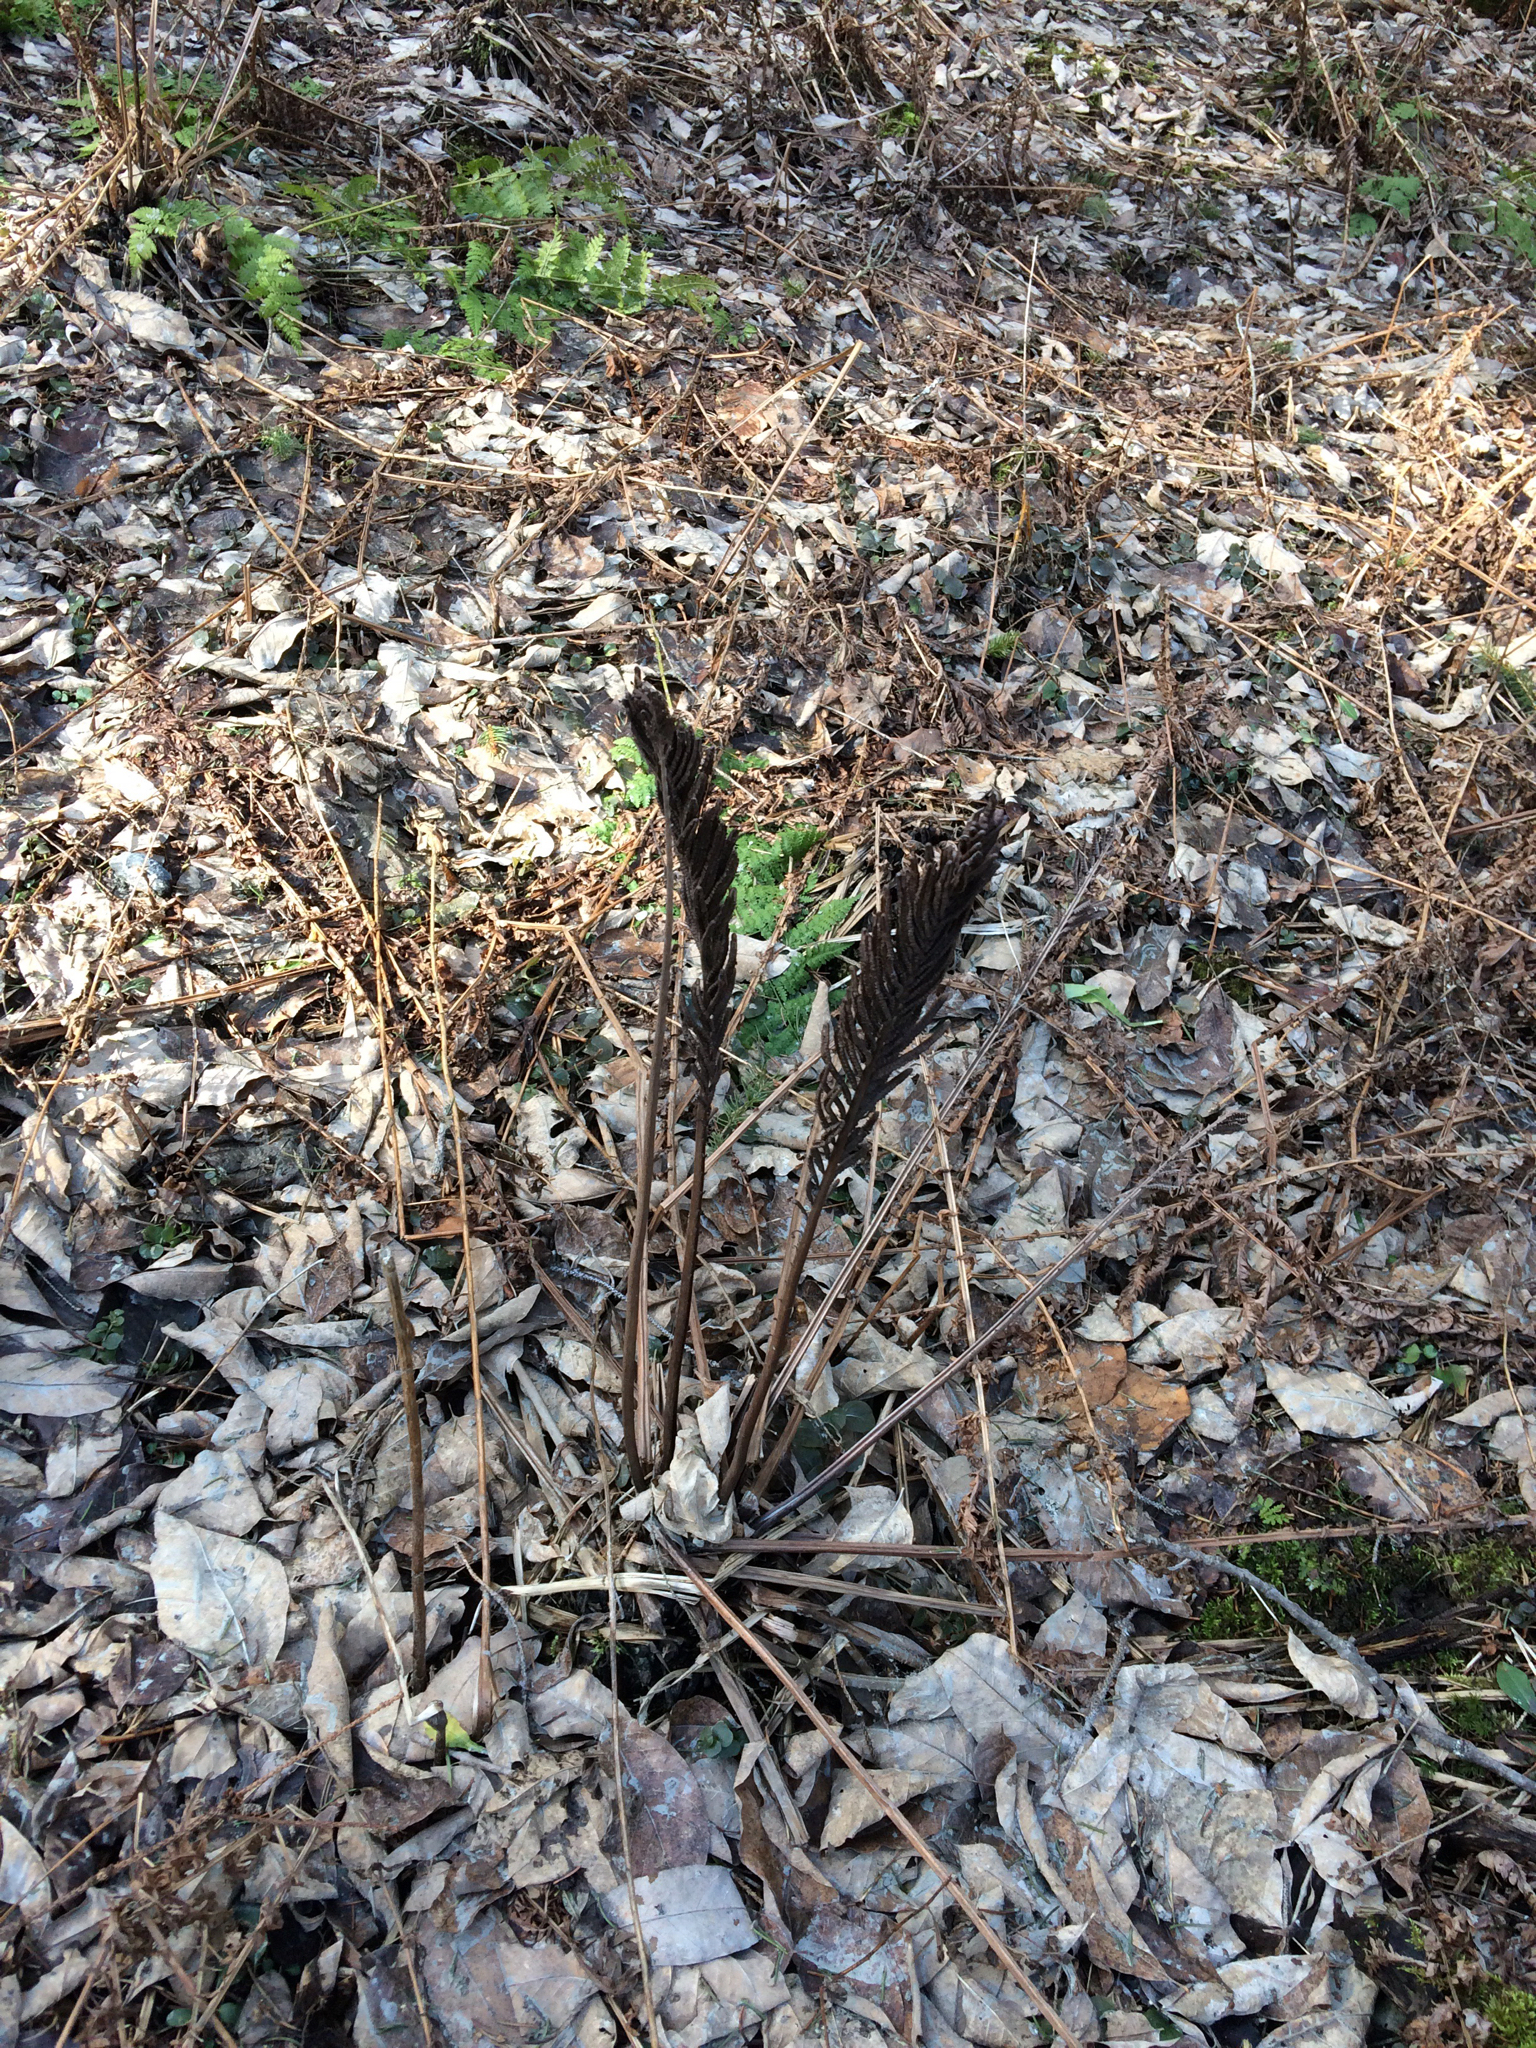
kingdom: Plantae
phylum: Tracheophyta
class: Polypodiopsida
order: Polypodiales
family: Onocleaceae
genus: Matteuccia
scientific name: Matteuccia struthiopteris
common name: Ostrich fern
